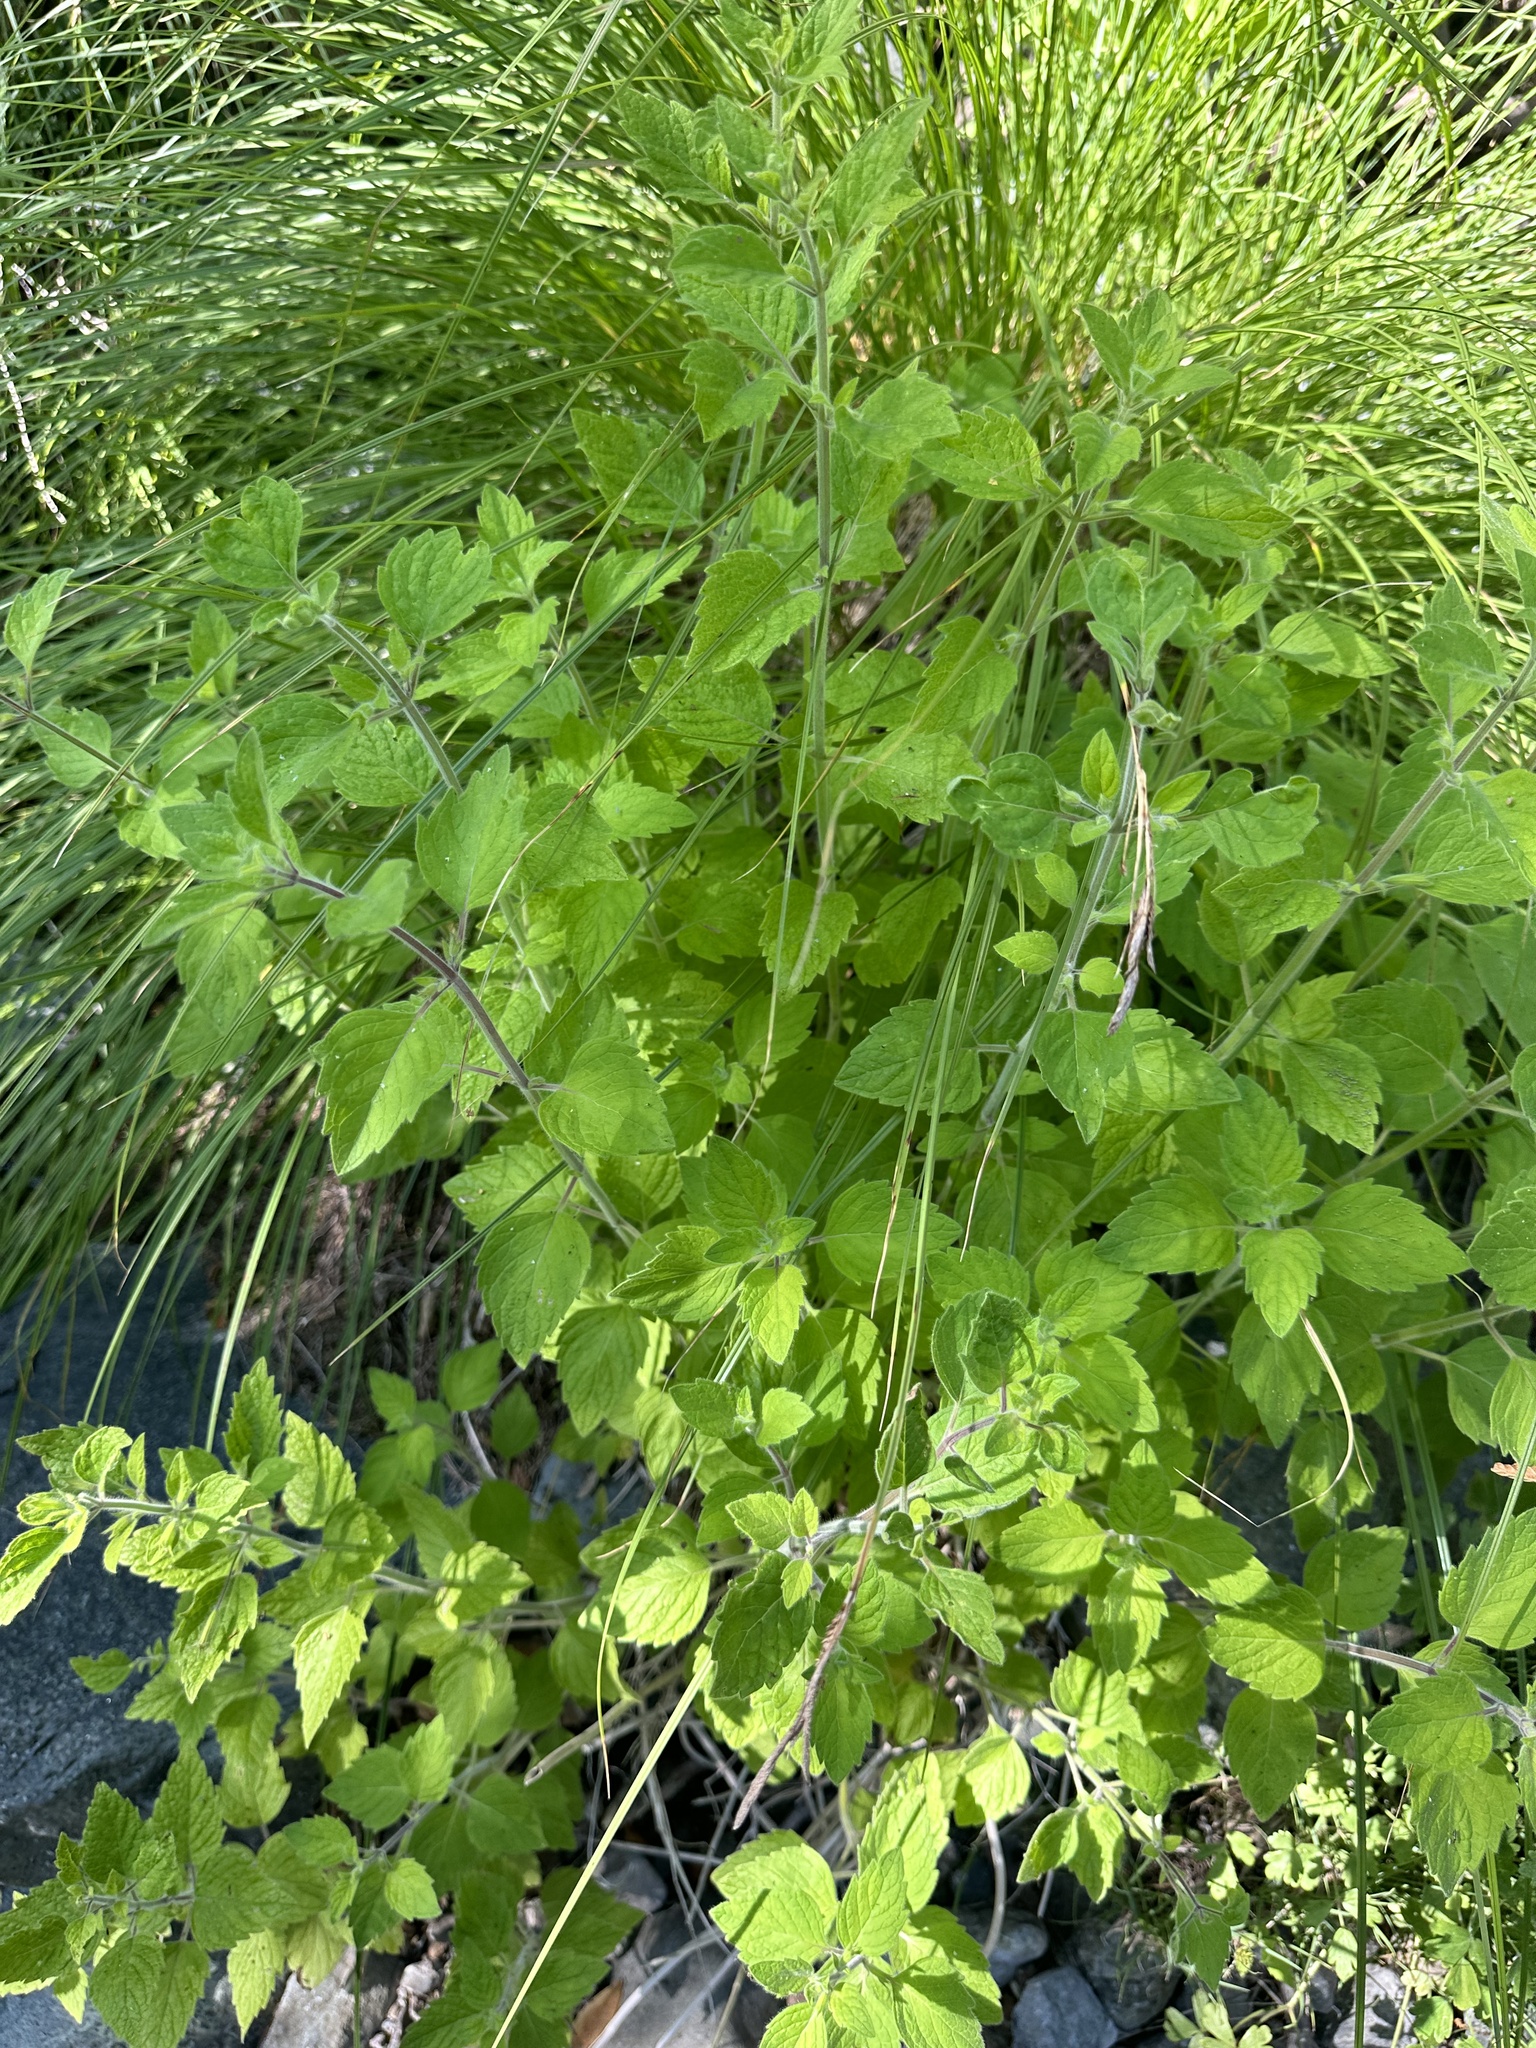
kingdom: Plantae
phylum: Tracheophyta
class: Magnoliopsida
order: Lamiales
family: Lamiaceae
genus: Clinopodium
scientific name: Clinopodium mimuloides
